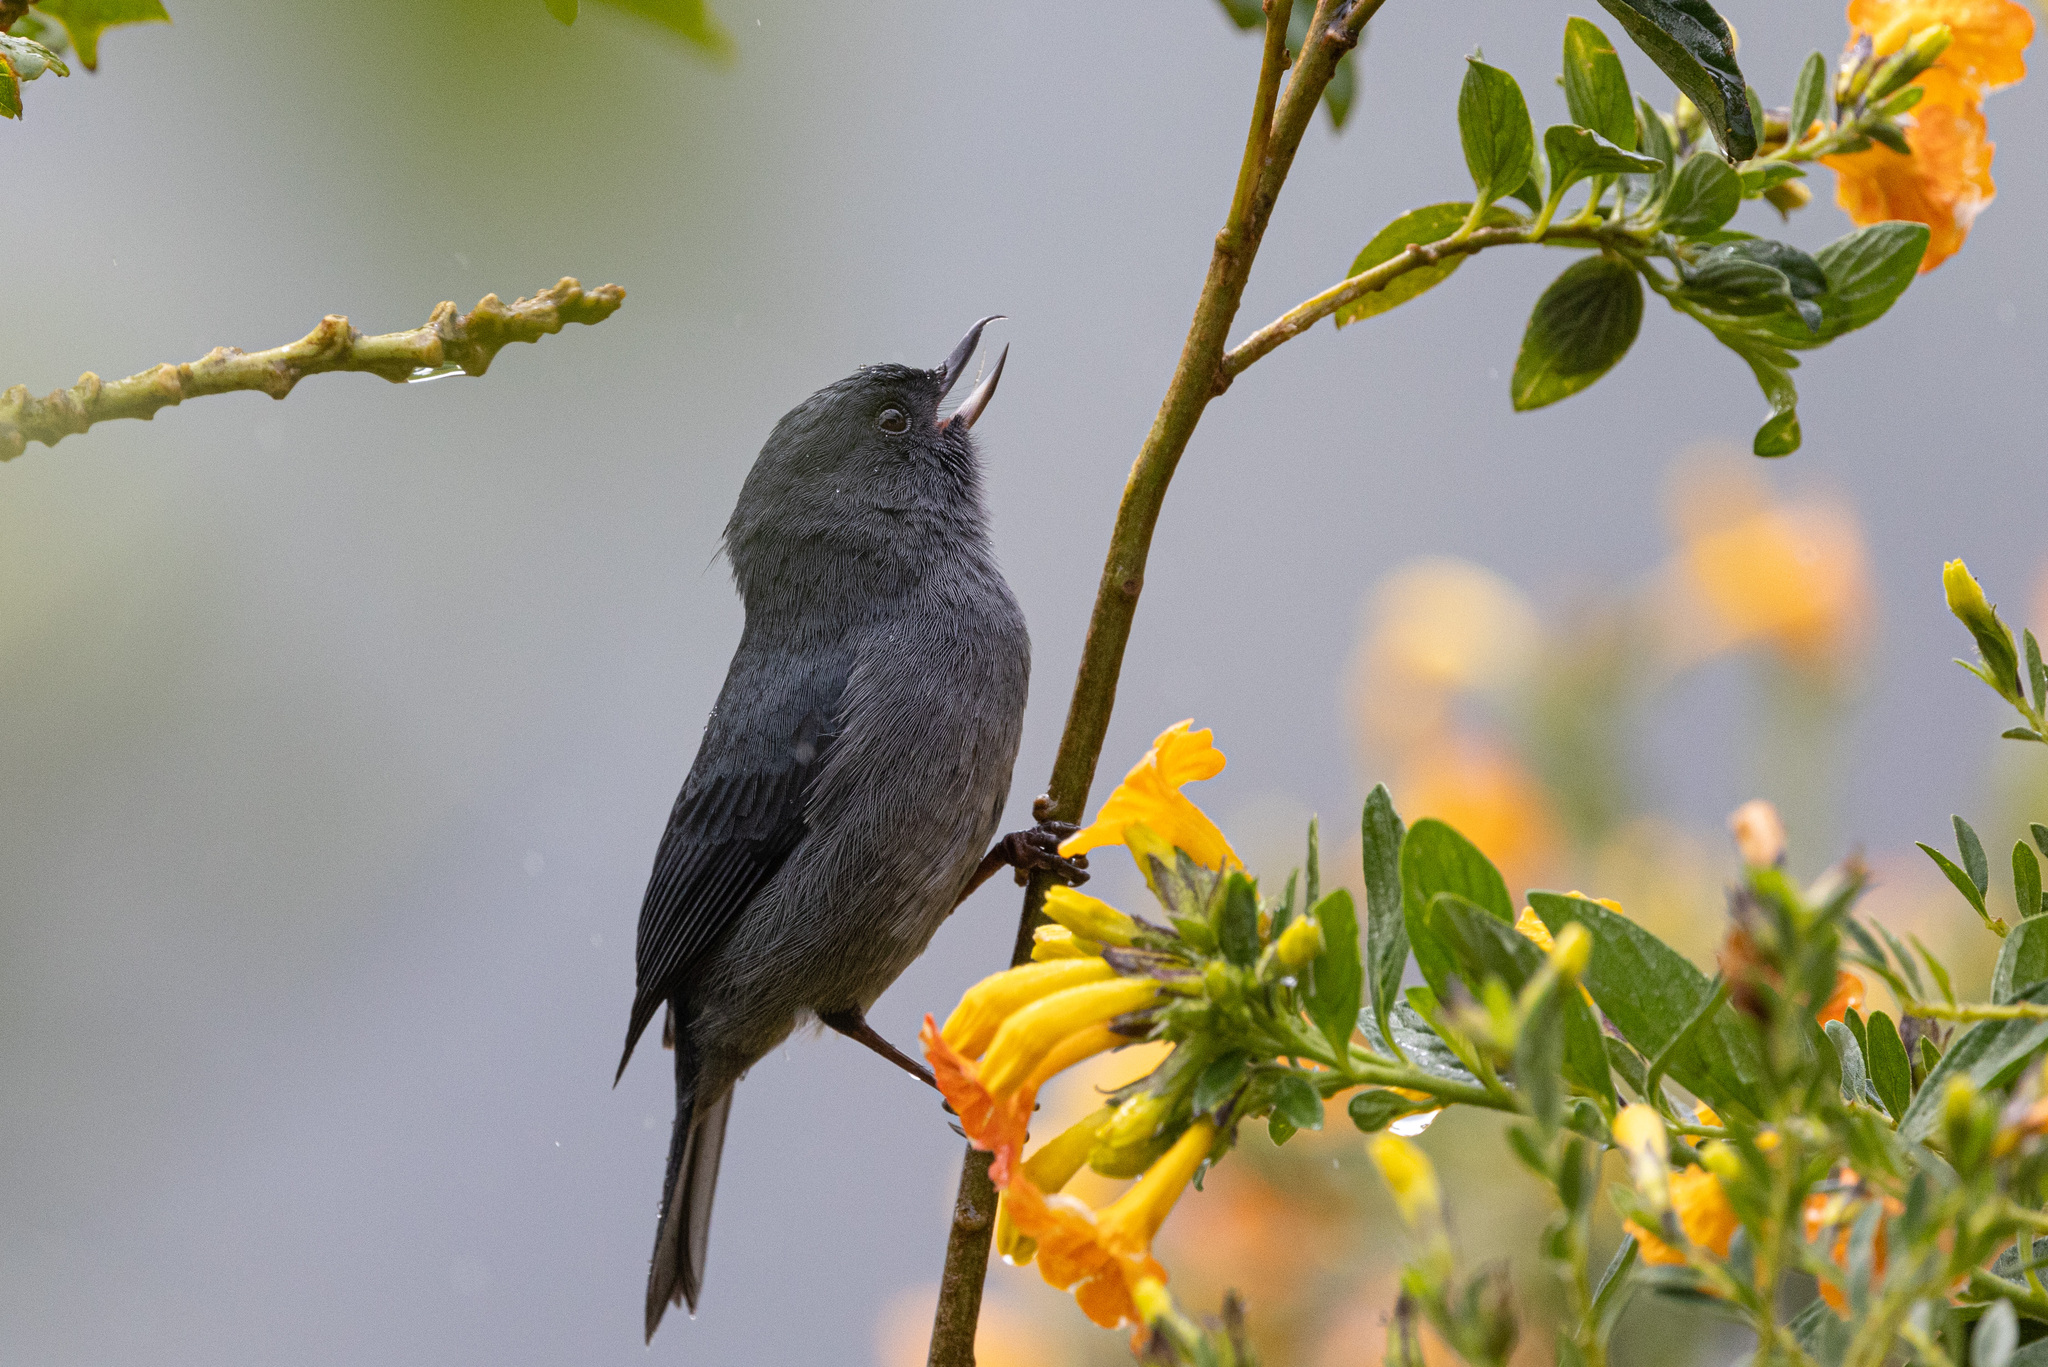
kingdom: Animalia
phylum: Chordata
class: Aves
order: Passeriformes
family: Thraupidae
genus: Diglossa
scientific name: Diglossa plumbea
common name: Slaty flowerpiercer
